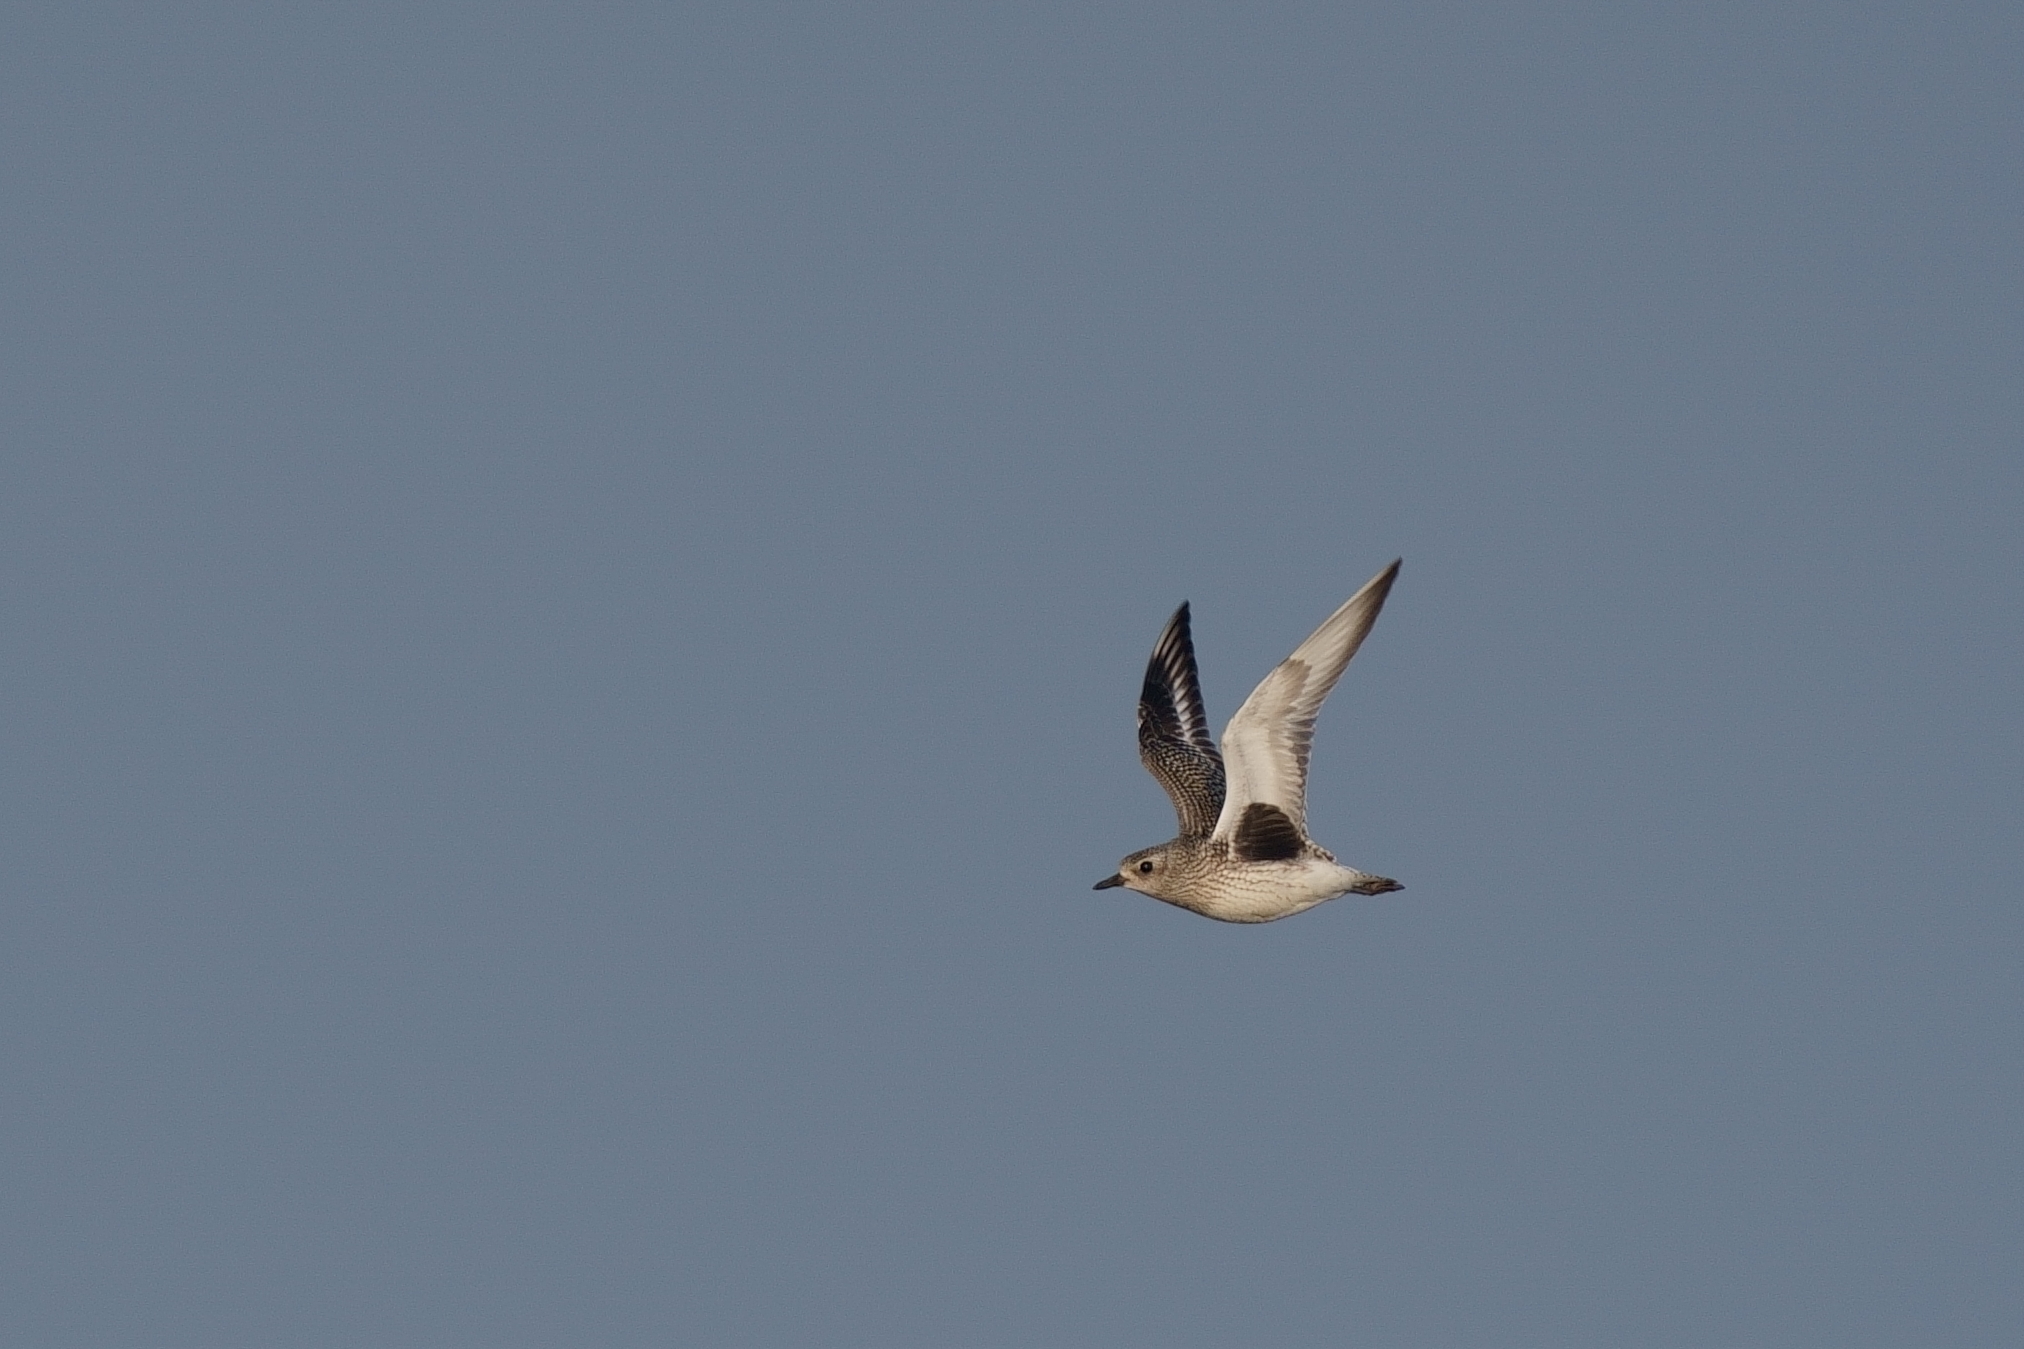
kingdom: Animalia
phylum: Chordata
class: Aves
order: Charadriiformes
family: Charadriidae
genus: Pluvialis
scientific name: Pluvialis squatarola
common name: Grey plover
